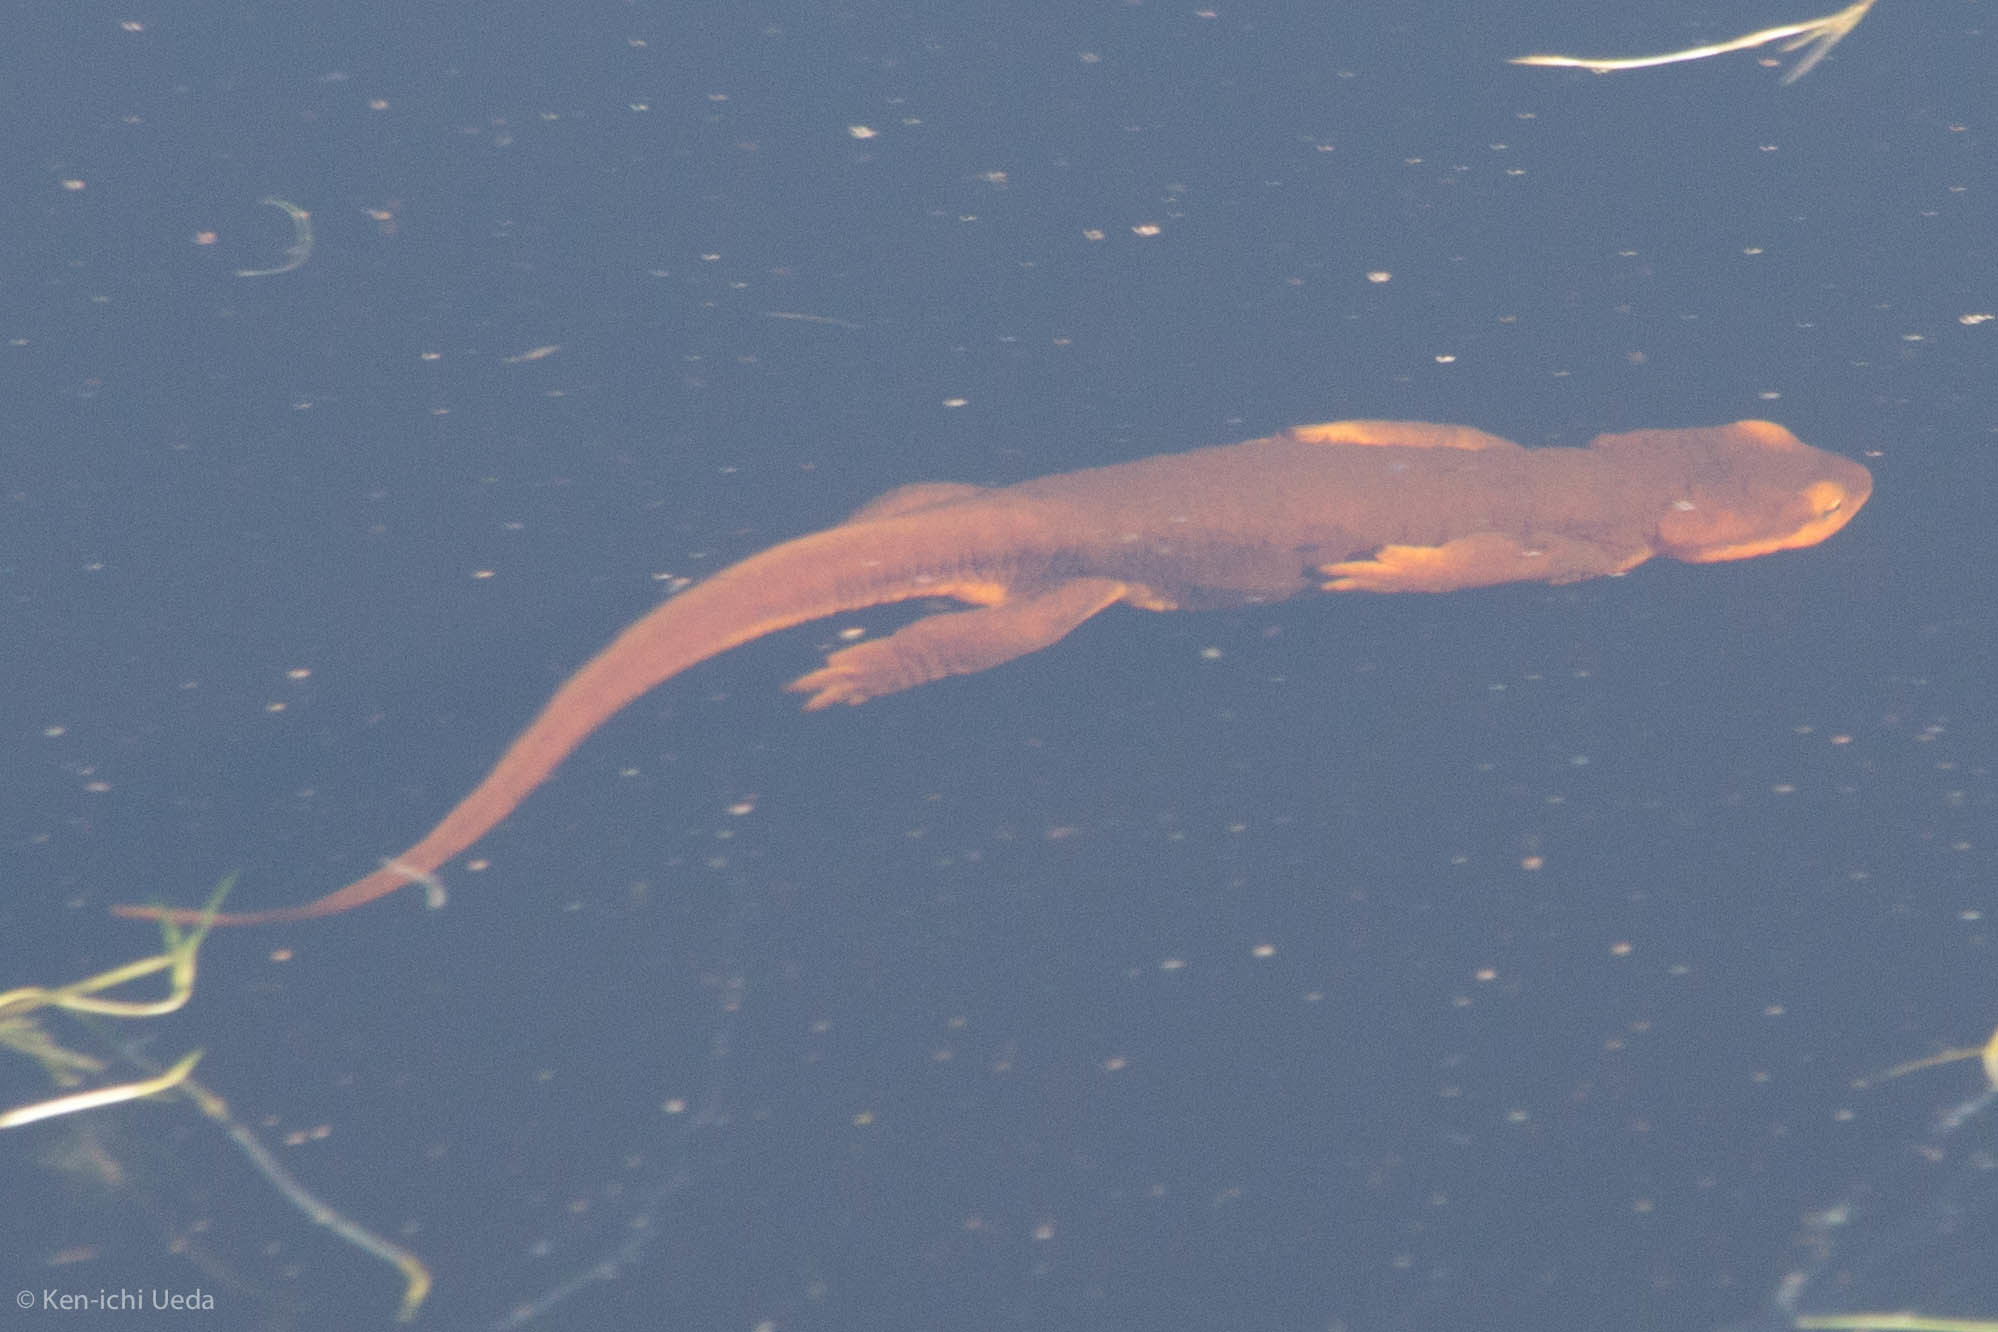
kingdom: Animalia
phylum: Chordata
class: Amphibia
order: Caudata
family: Salamandridae
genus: Taricha
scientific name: Taricha torosa
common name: California newt
